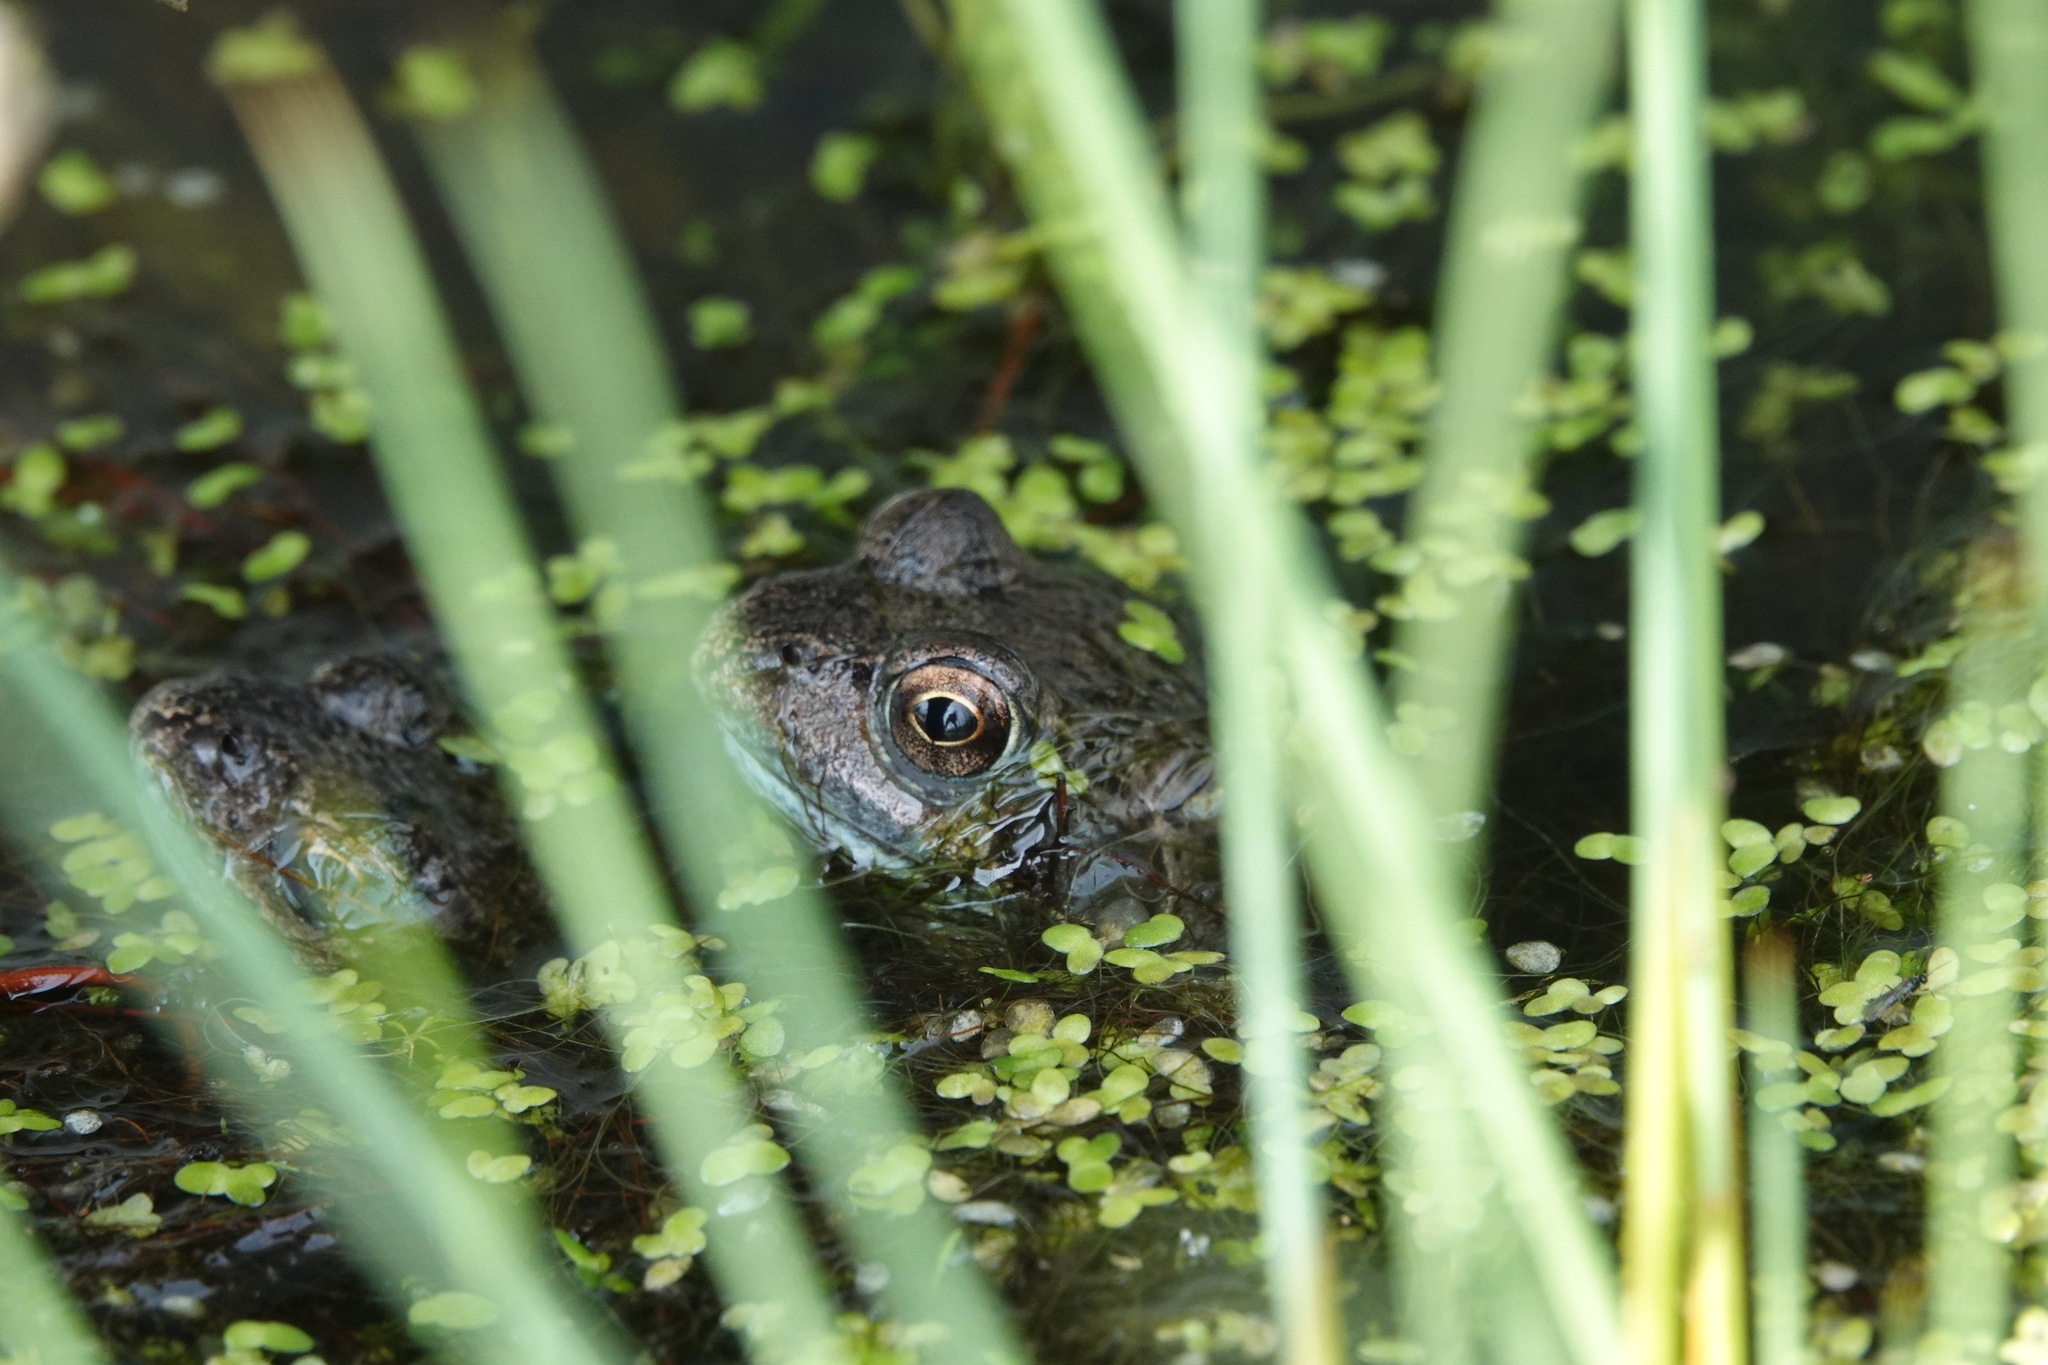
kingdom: Animalia
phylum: Chordata
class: Amphibia
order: Anura
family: Ranidae
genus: Rana
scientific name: Rana temporaria
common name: Common frog
